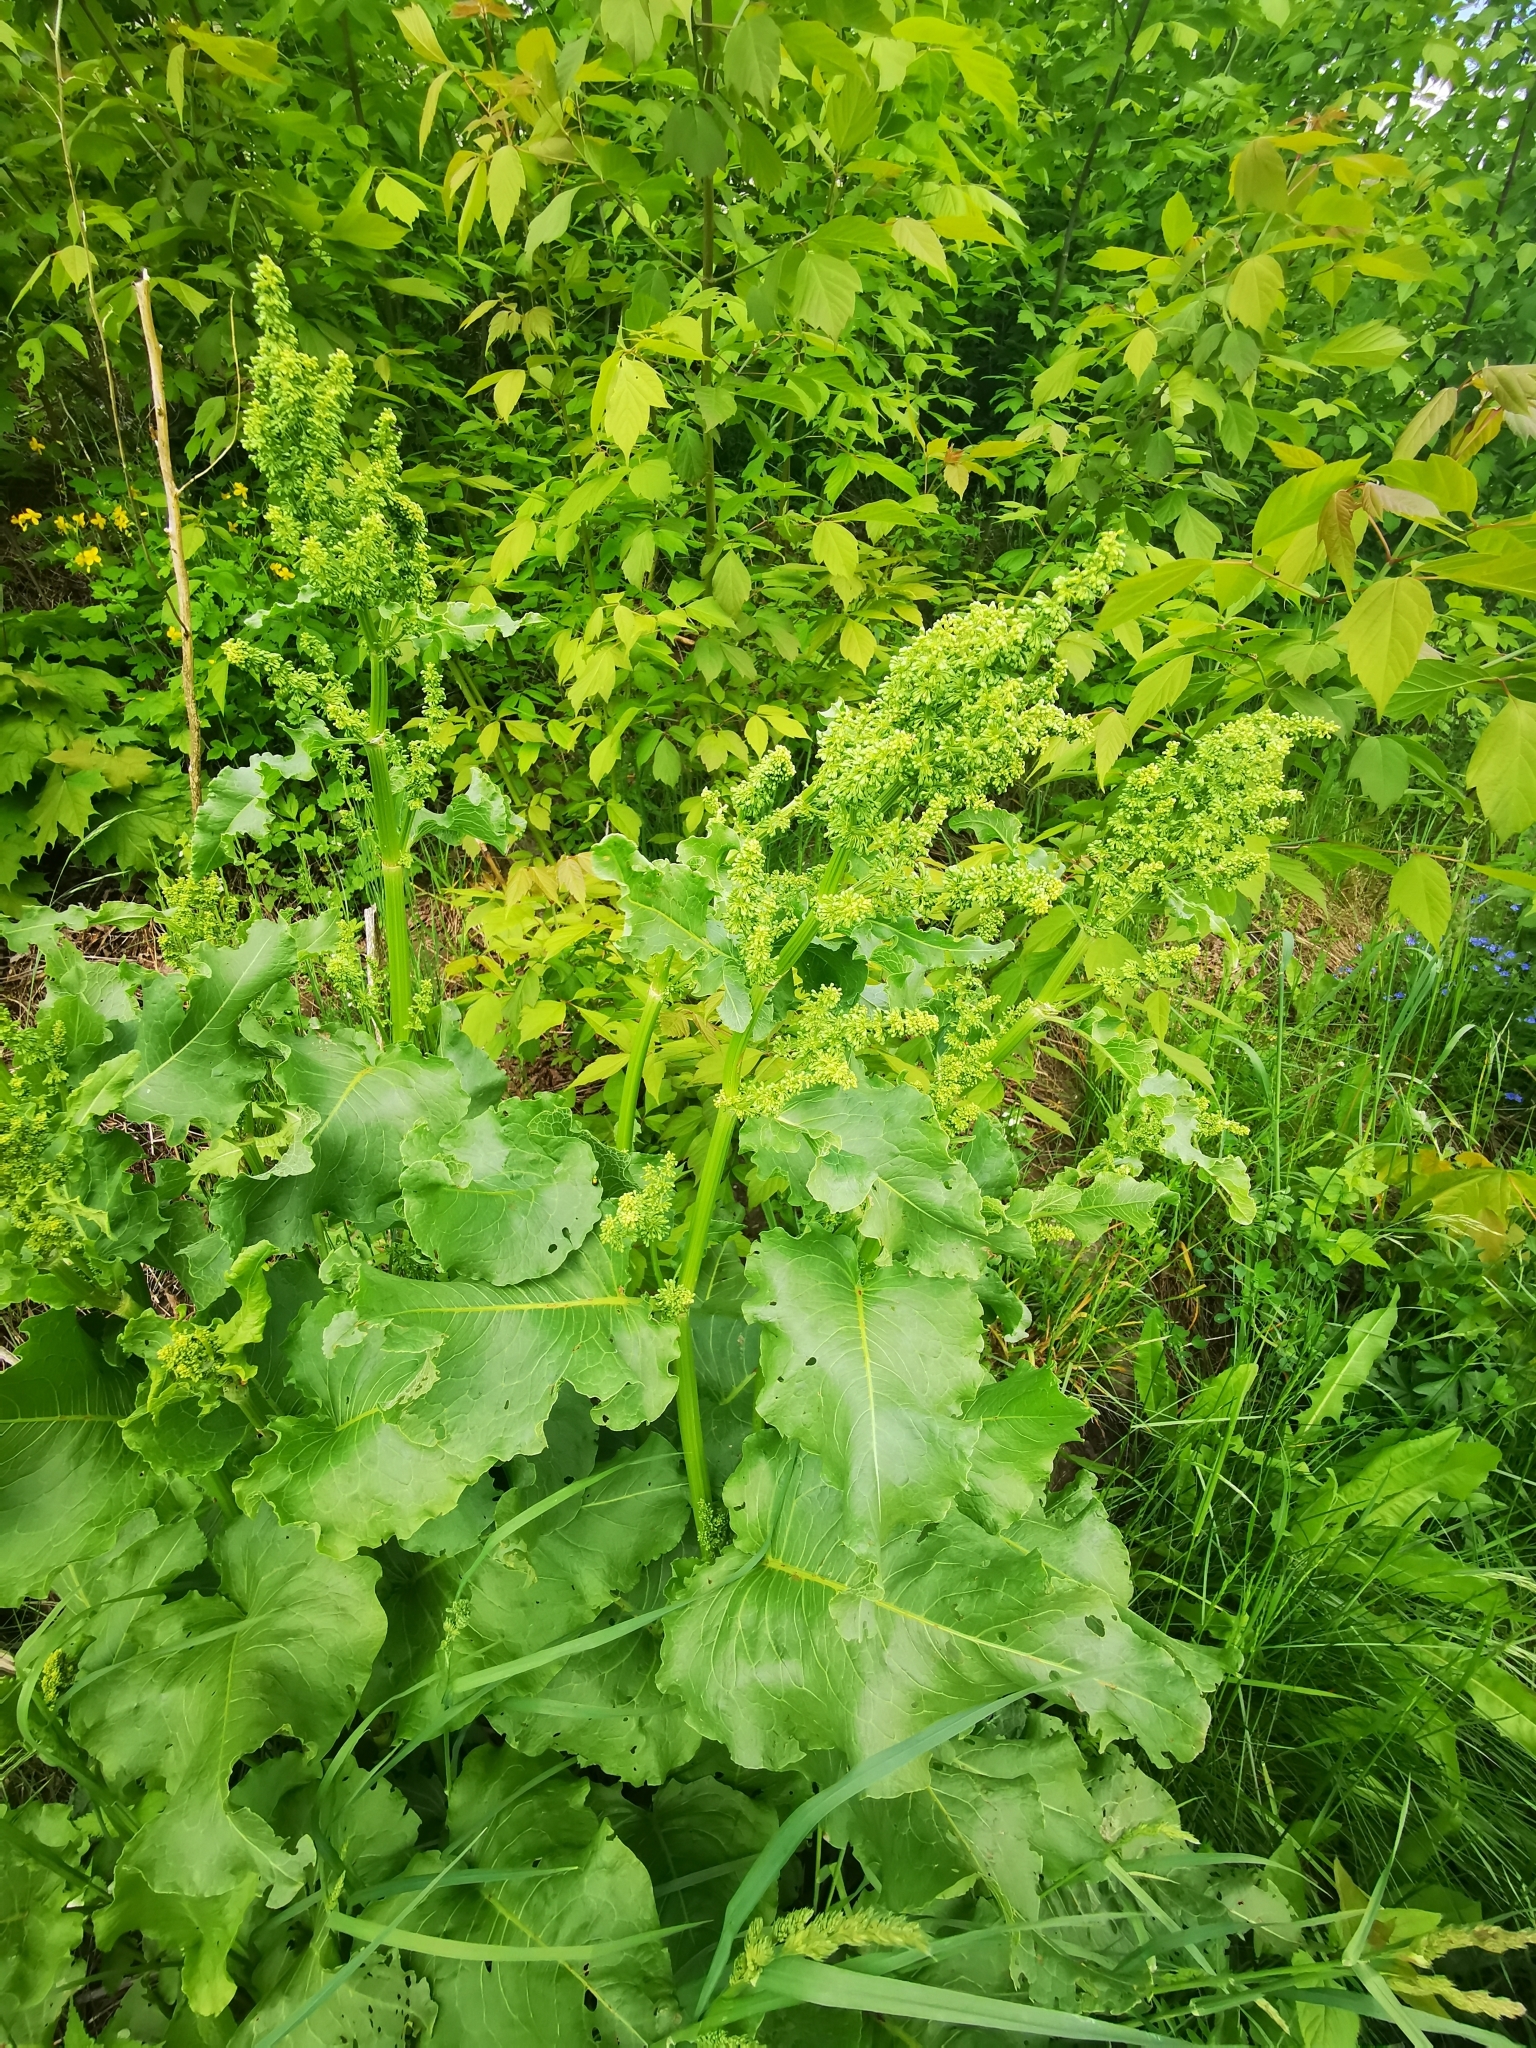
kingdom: Plantae
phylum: Tracheophyta
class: Magnoliopsida
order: Caryophyllales
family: Polygonaceae
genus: Rumex
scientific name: Rumex confertus
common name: Russian dock
